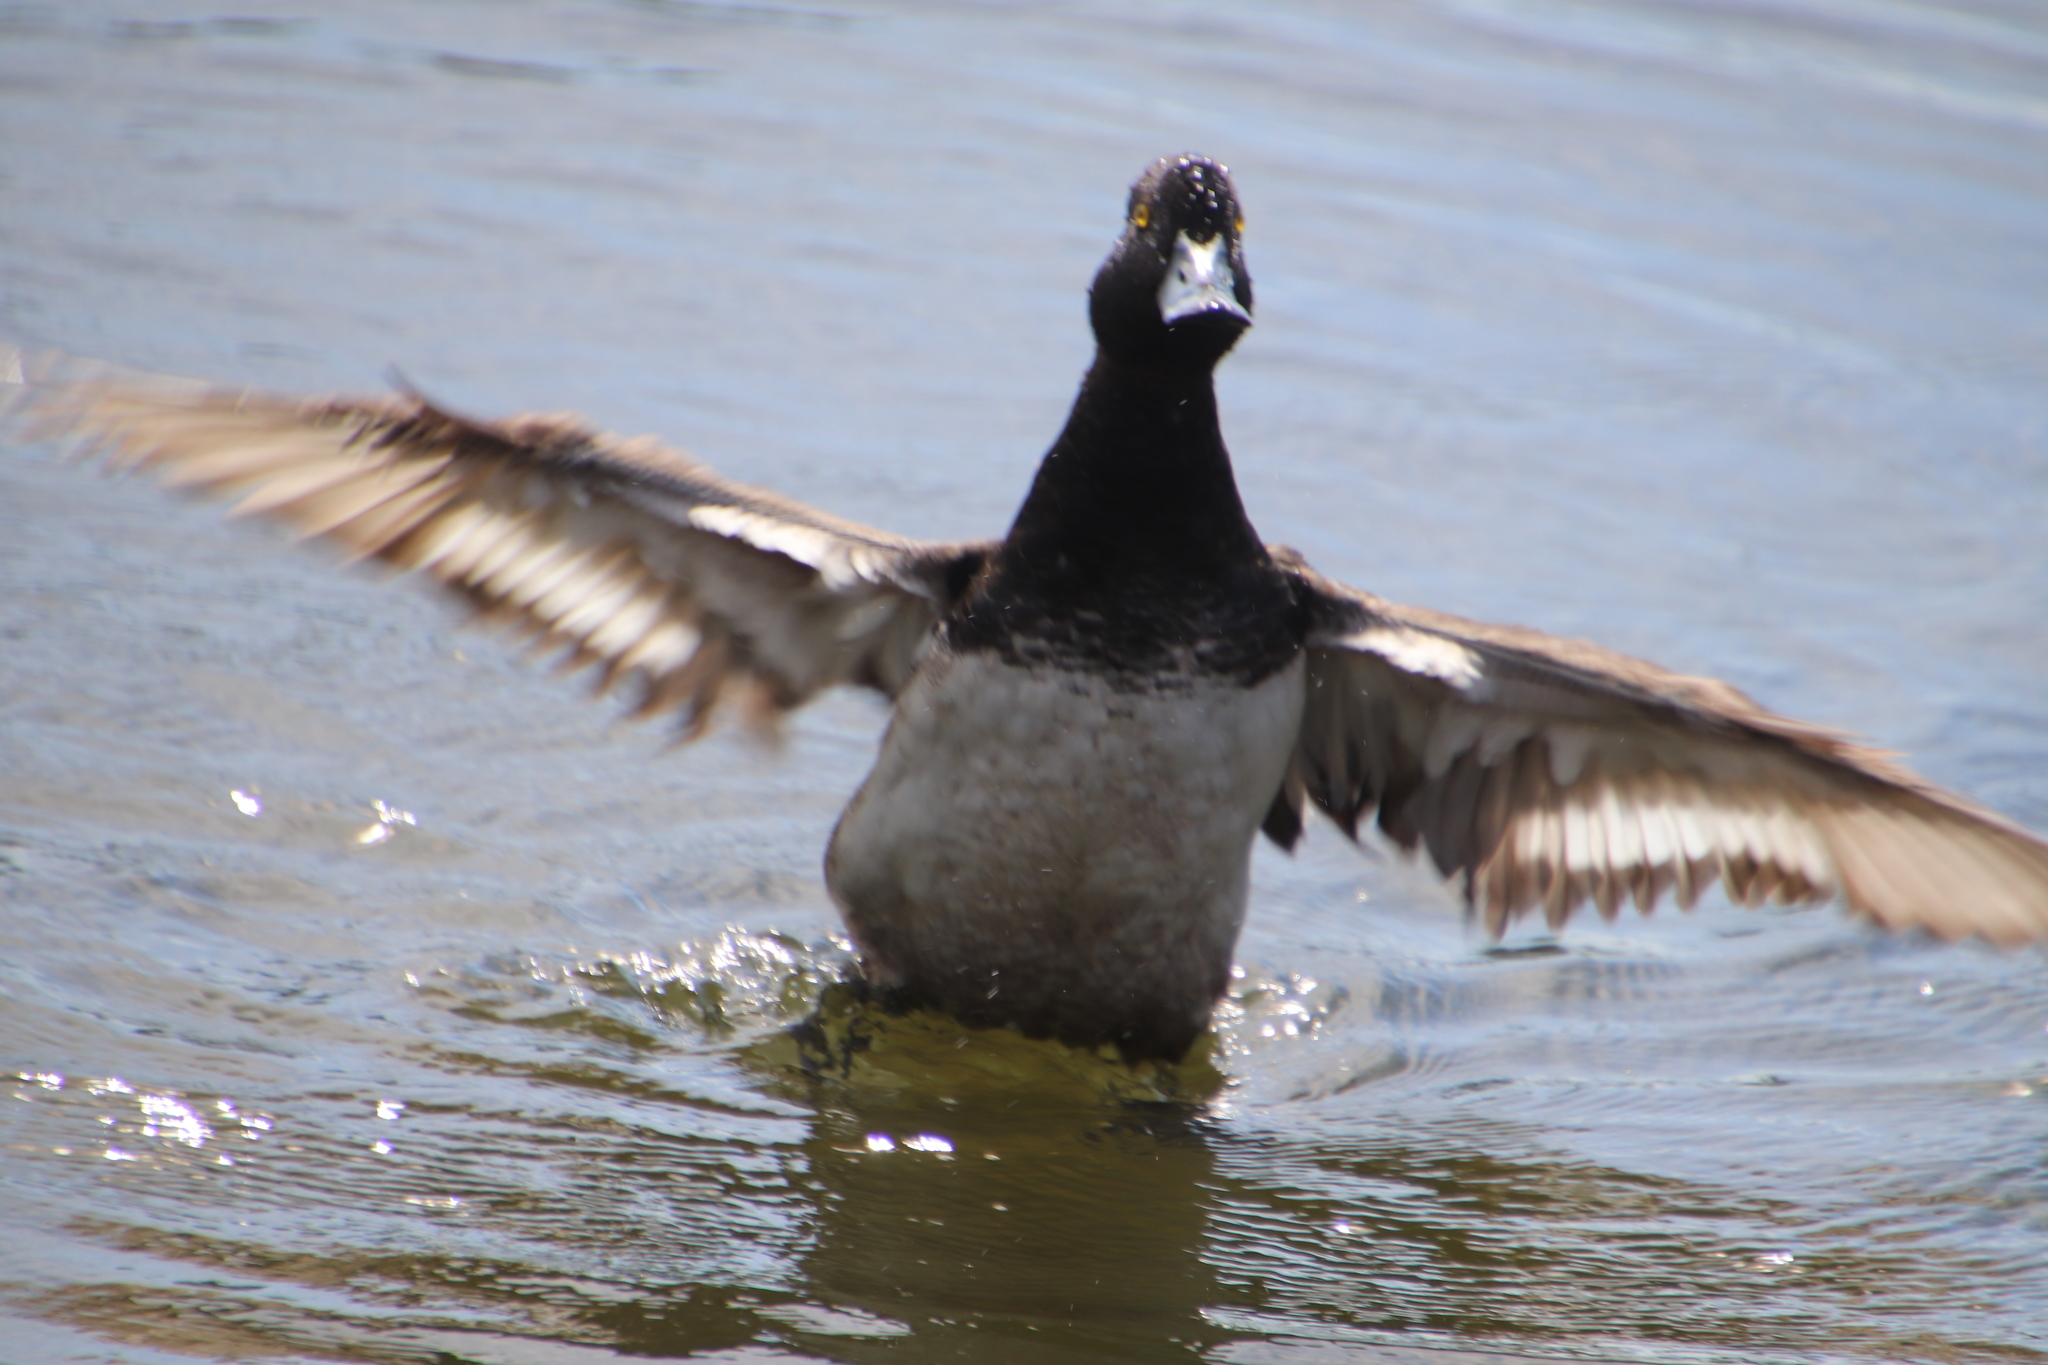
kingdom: Animalia
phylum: Chordata
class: Aves
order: Anseriformes
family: Anatidae
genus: Aythya
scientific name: Aythya marila
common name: Greater scaup
